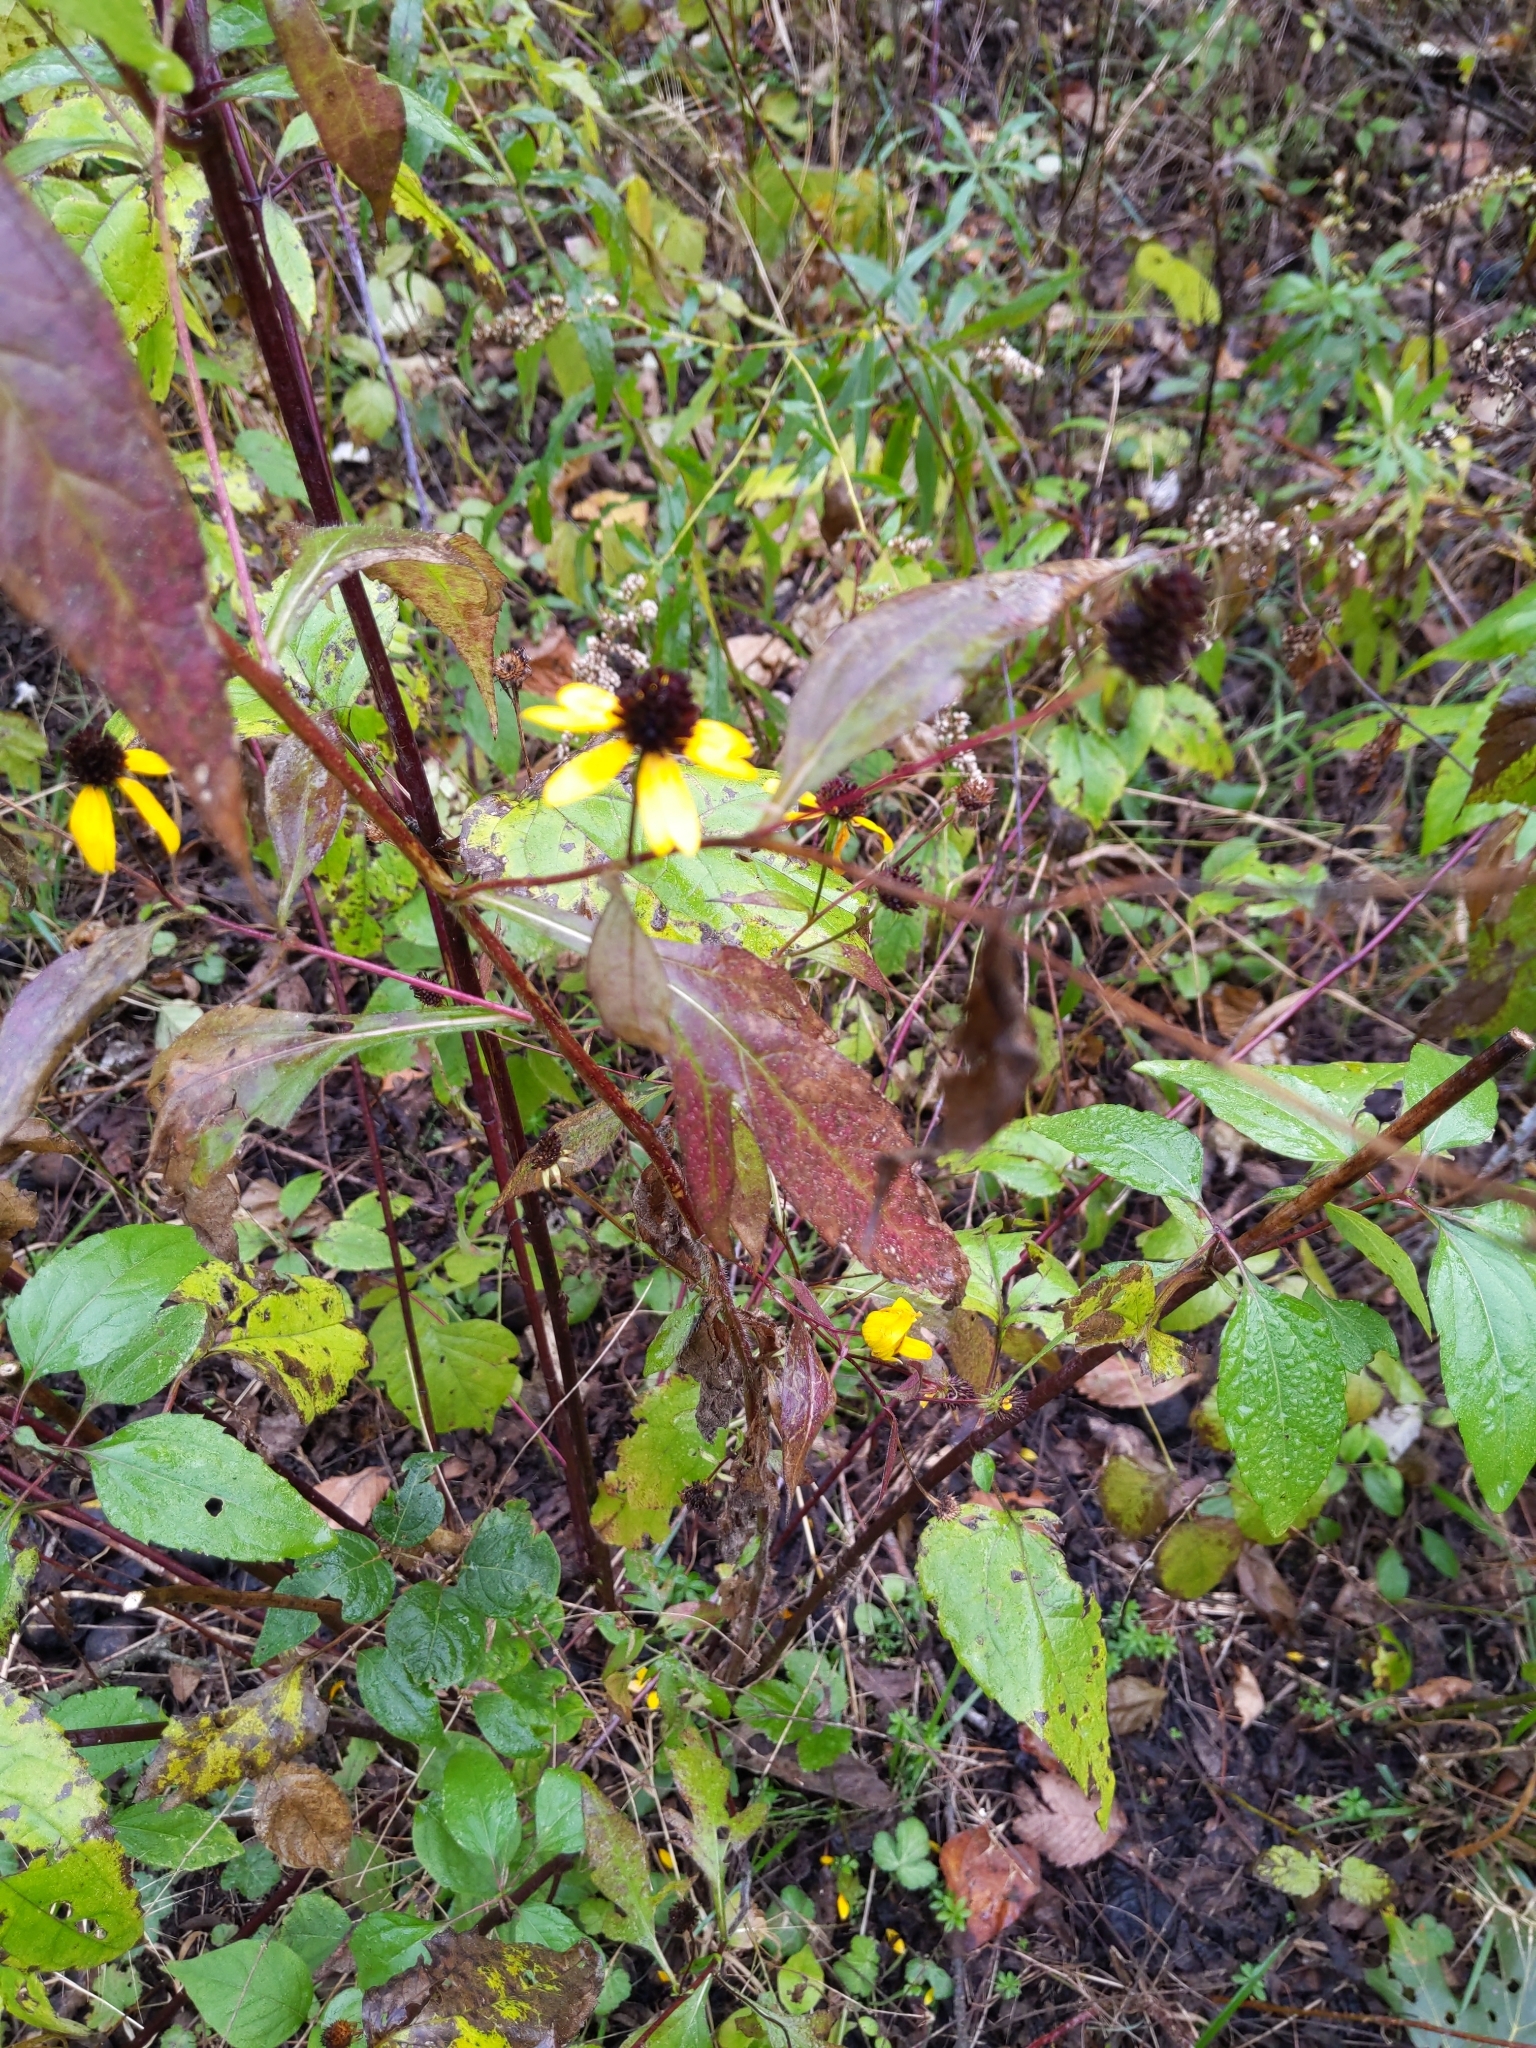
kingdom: Plantae
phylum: Tracheophyta
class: Magnoliopsida
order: Asterales
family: Asteraceae
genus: Rudbeckia
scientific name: Rudbeckia triloba
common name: Thin-leaved coneflower
